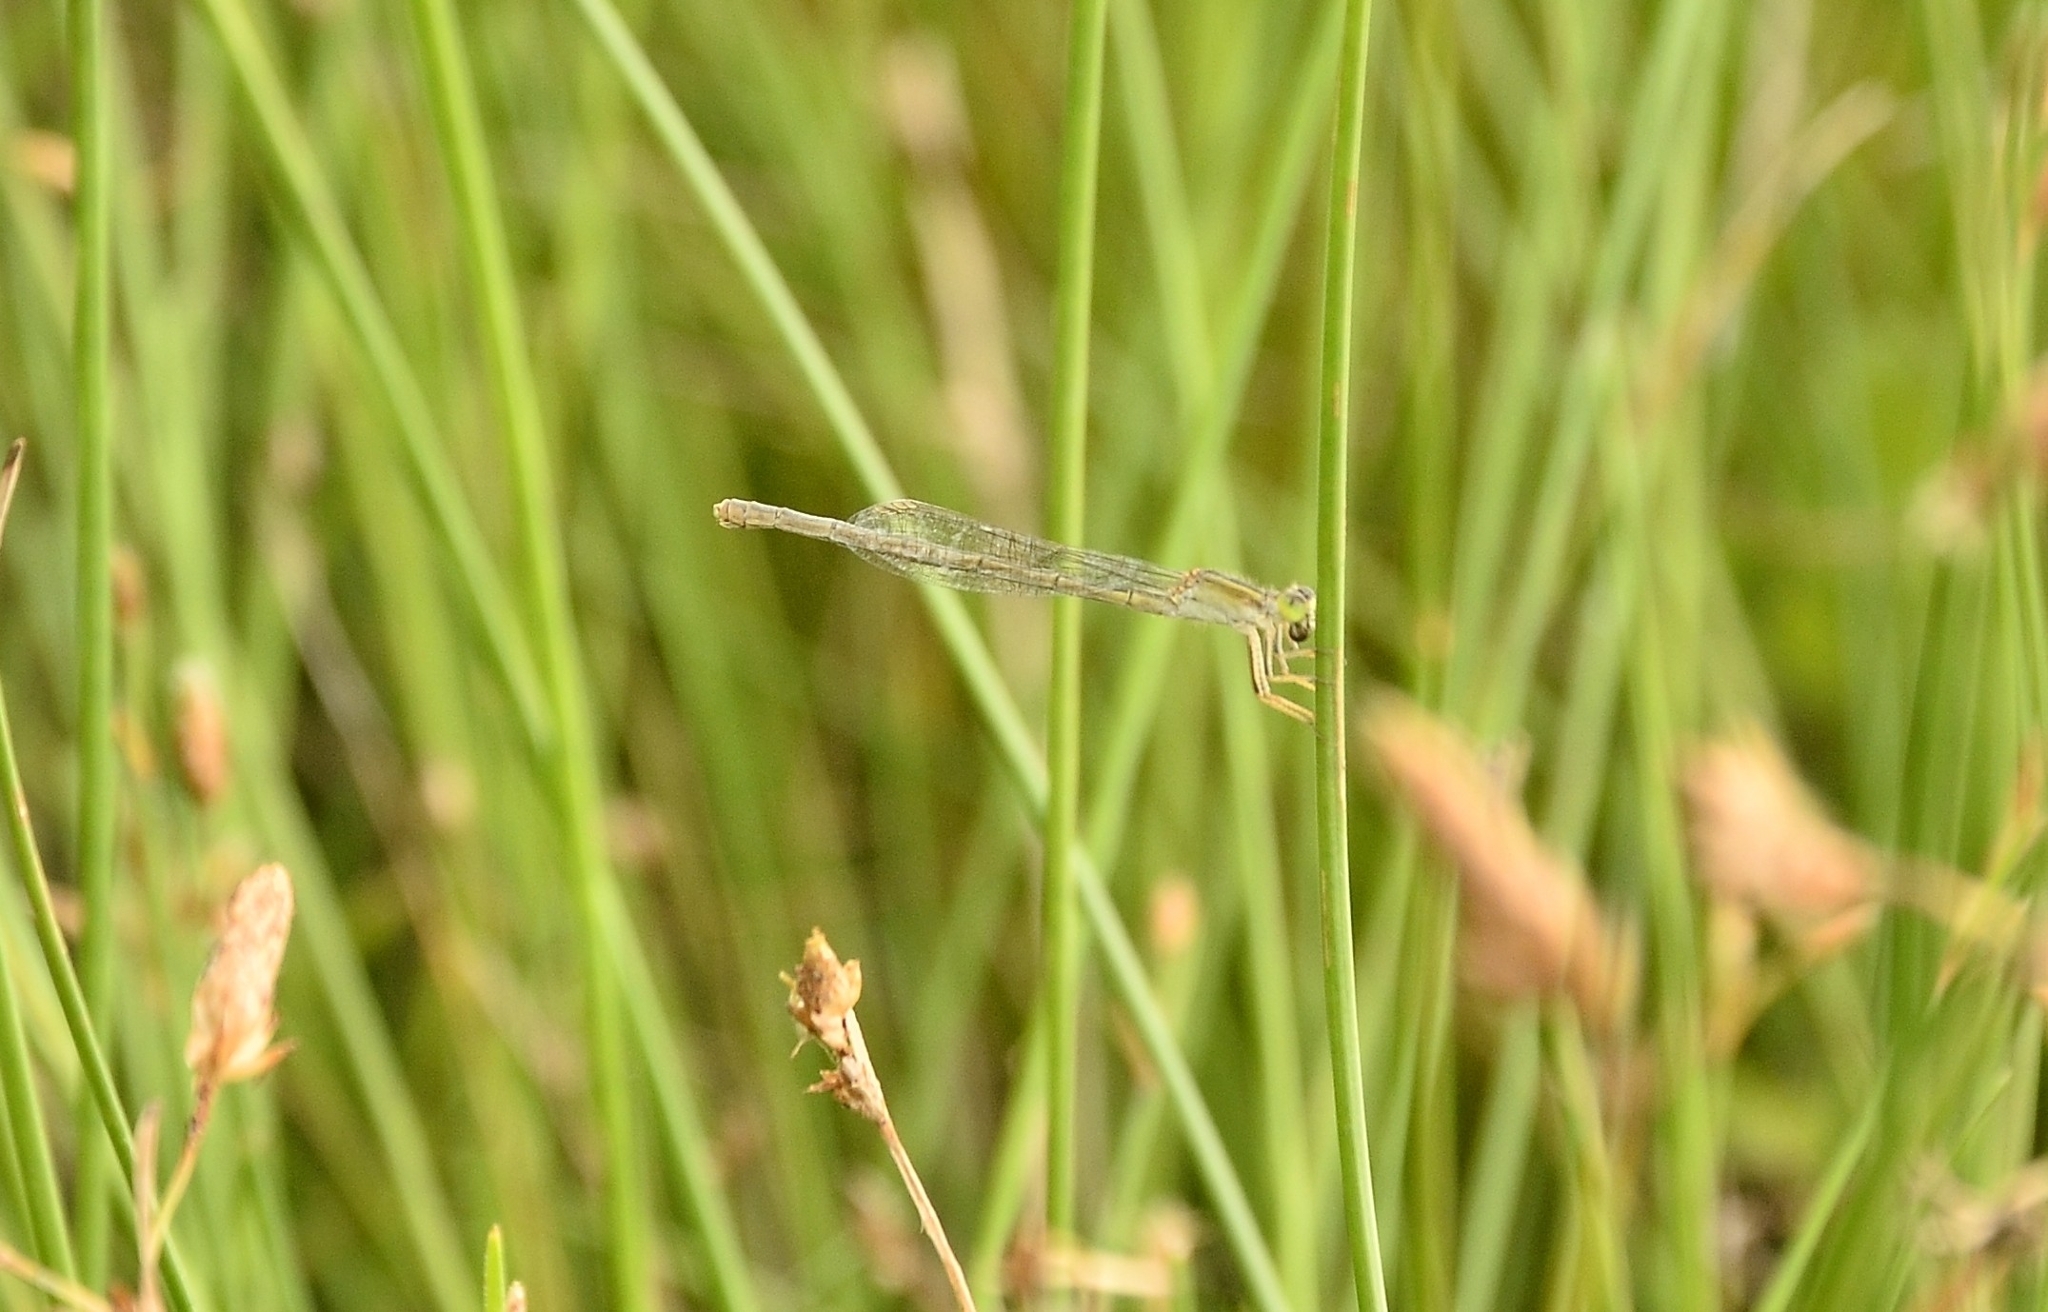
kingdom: Animalia
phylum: Arthropoda
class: Insecta
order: Odonata
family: Coenagrionidae
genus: Ischnura
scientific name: Ischnura senegalensis
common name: Tropical bluetail
